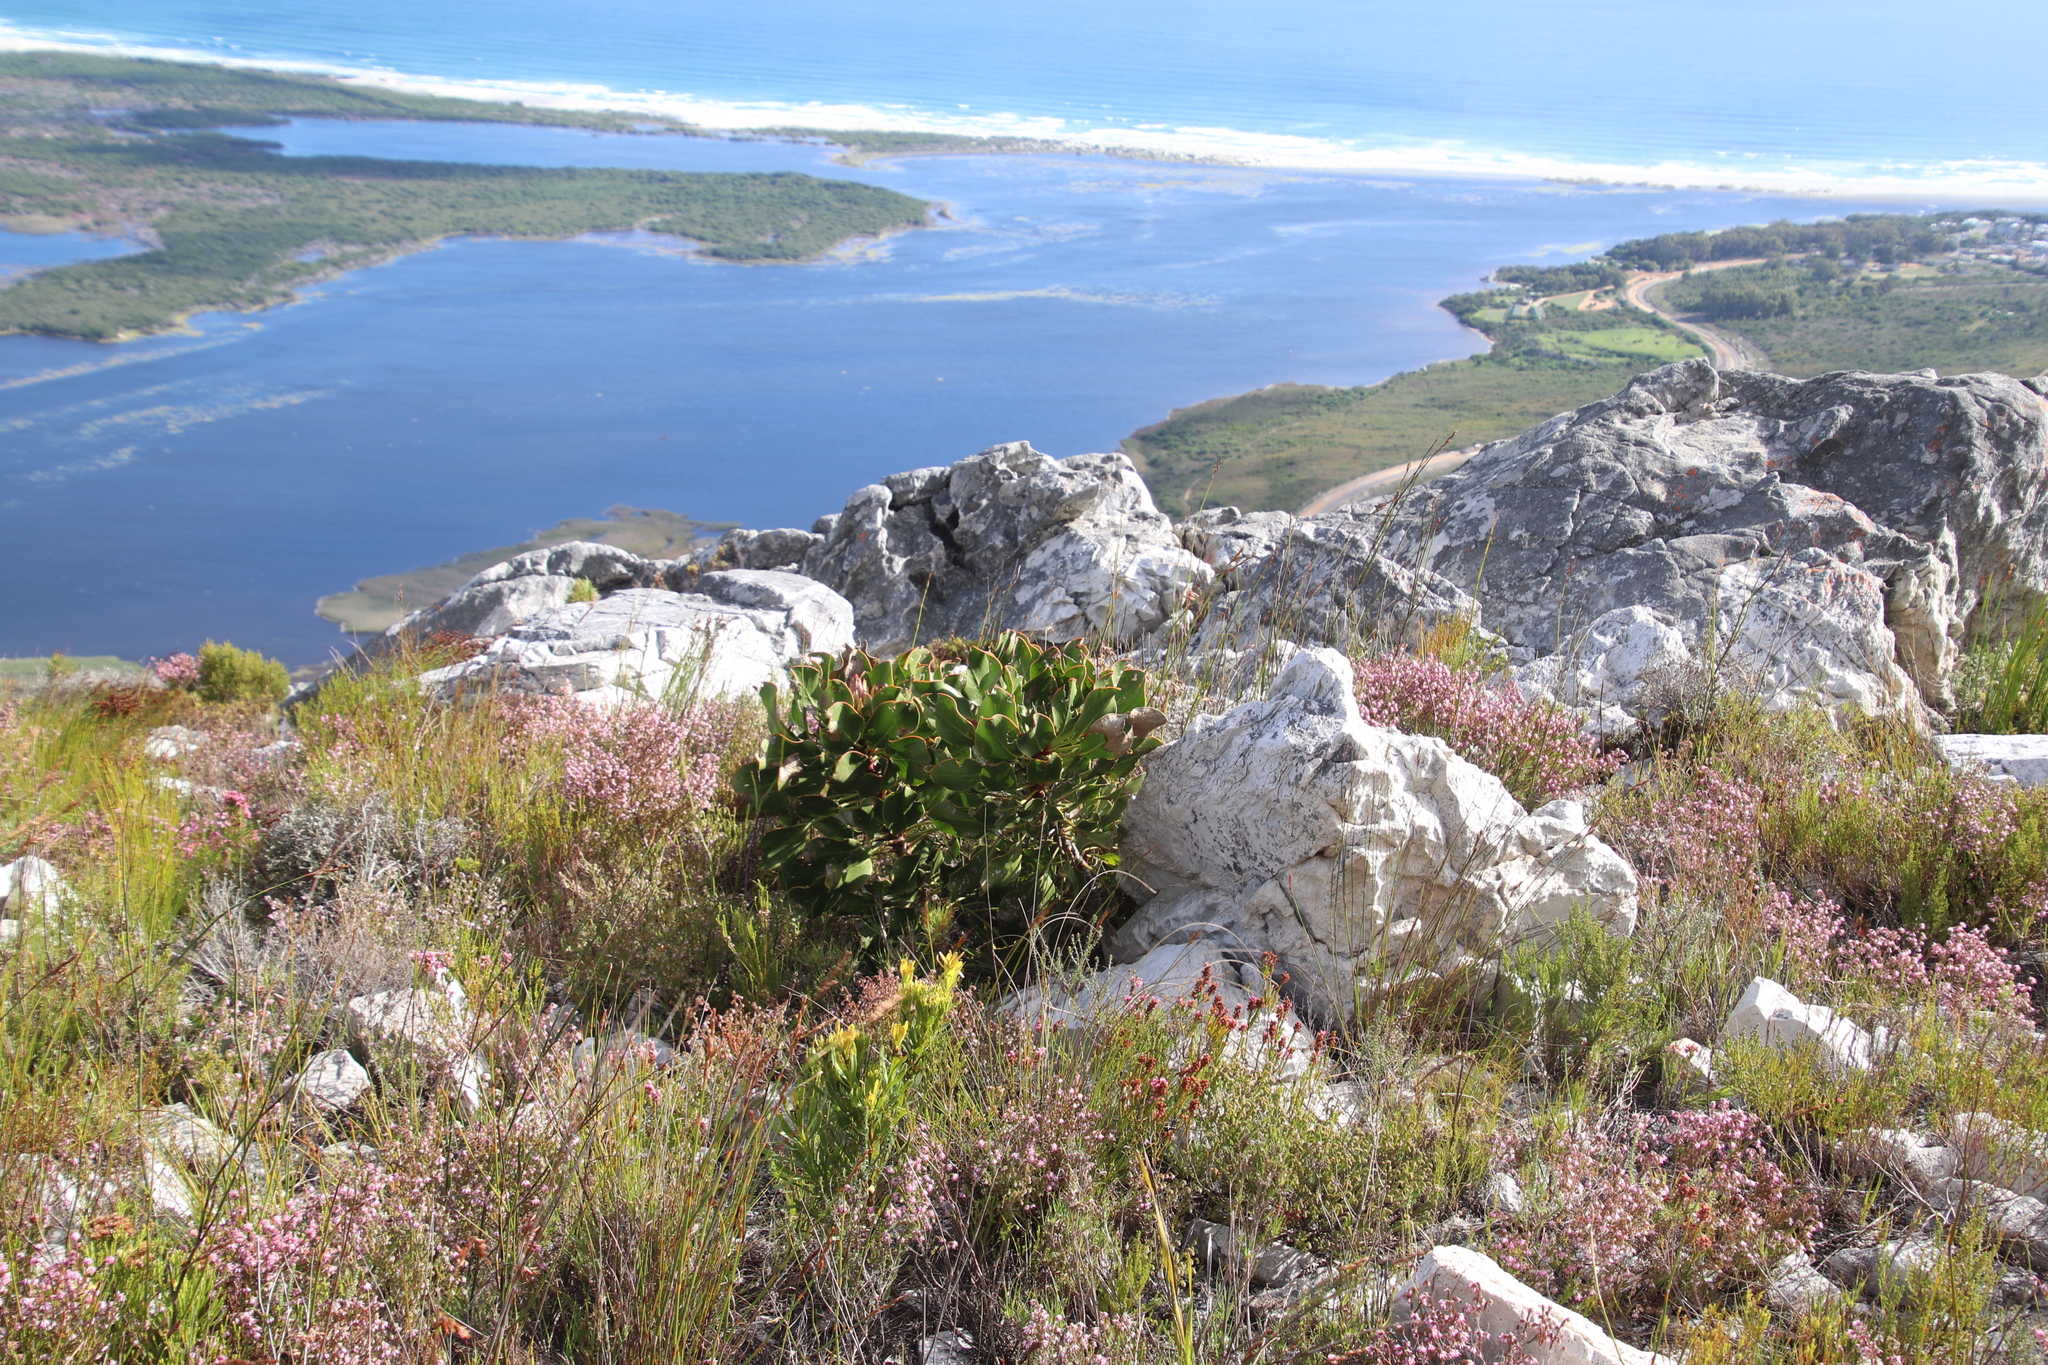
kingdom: Plantae
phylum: Tracheophyta
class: Magnoliopsida
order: Proteales
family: Proteaceae
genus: Protea
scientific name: Protea cynaroides
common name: King protea
